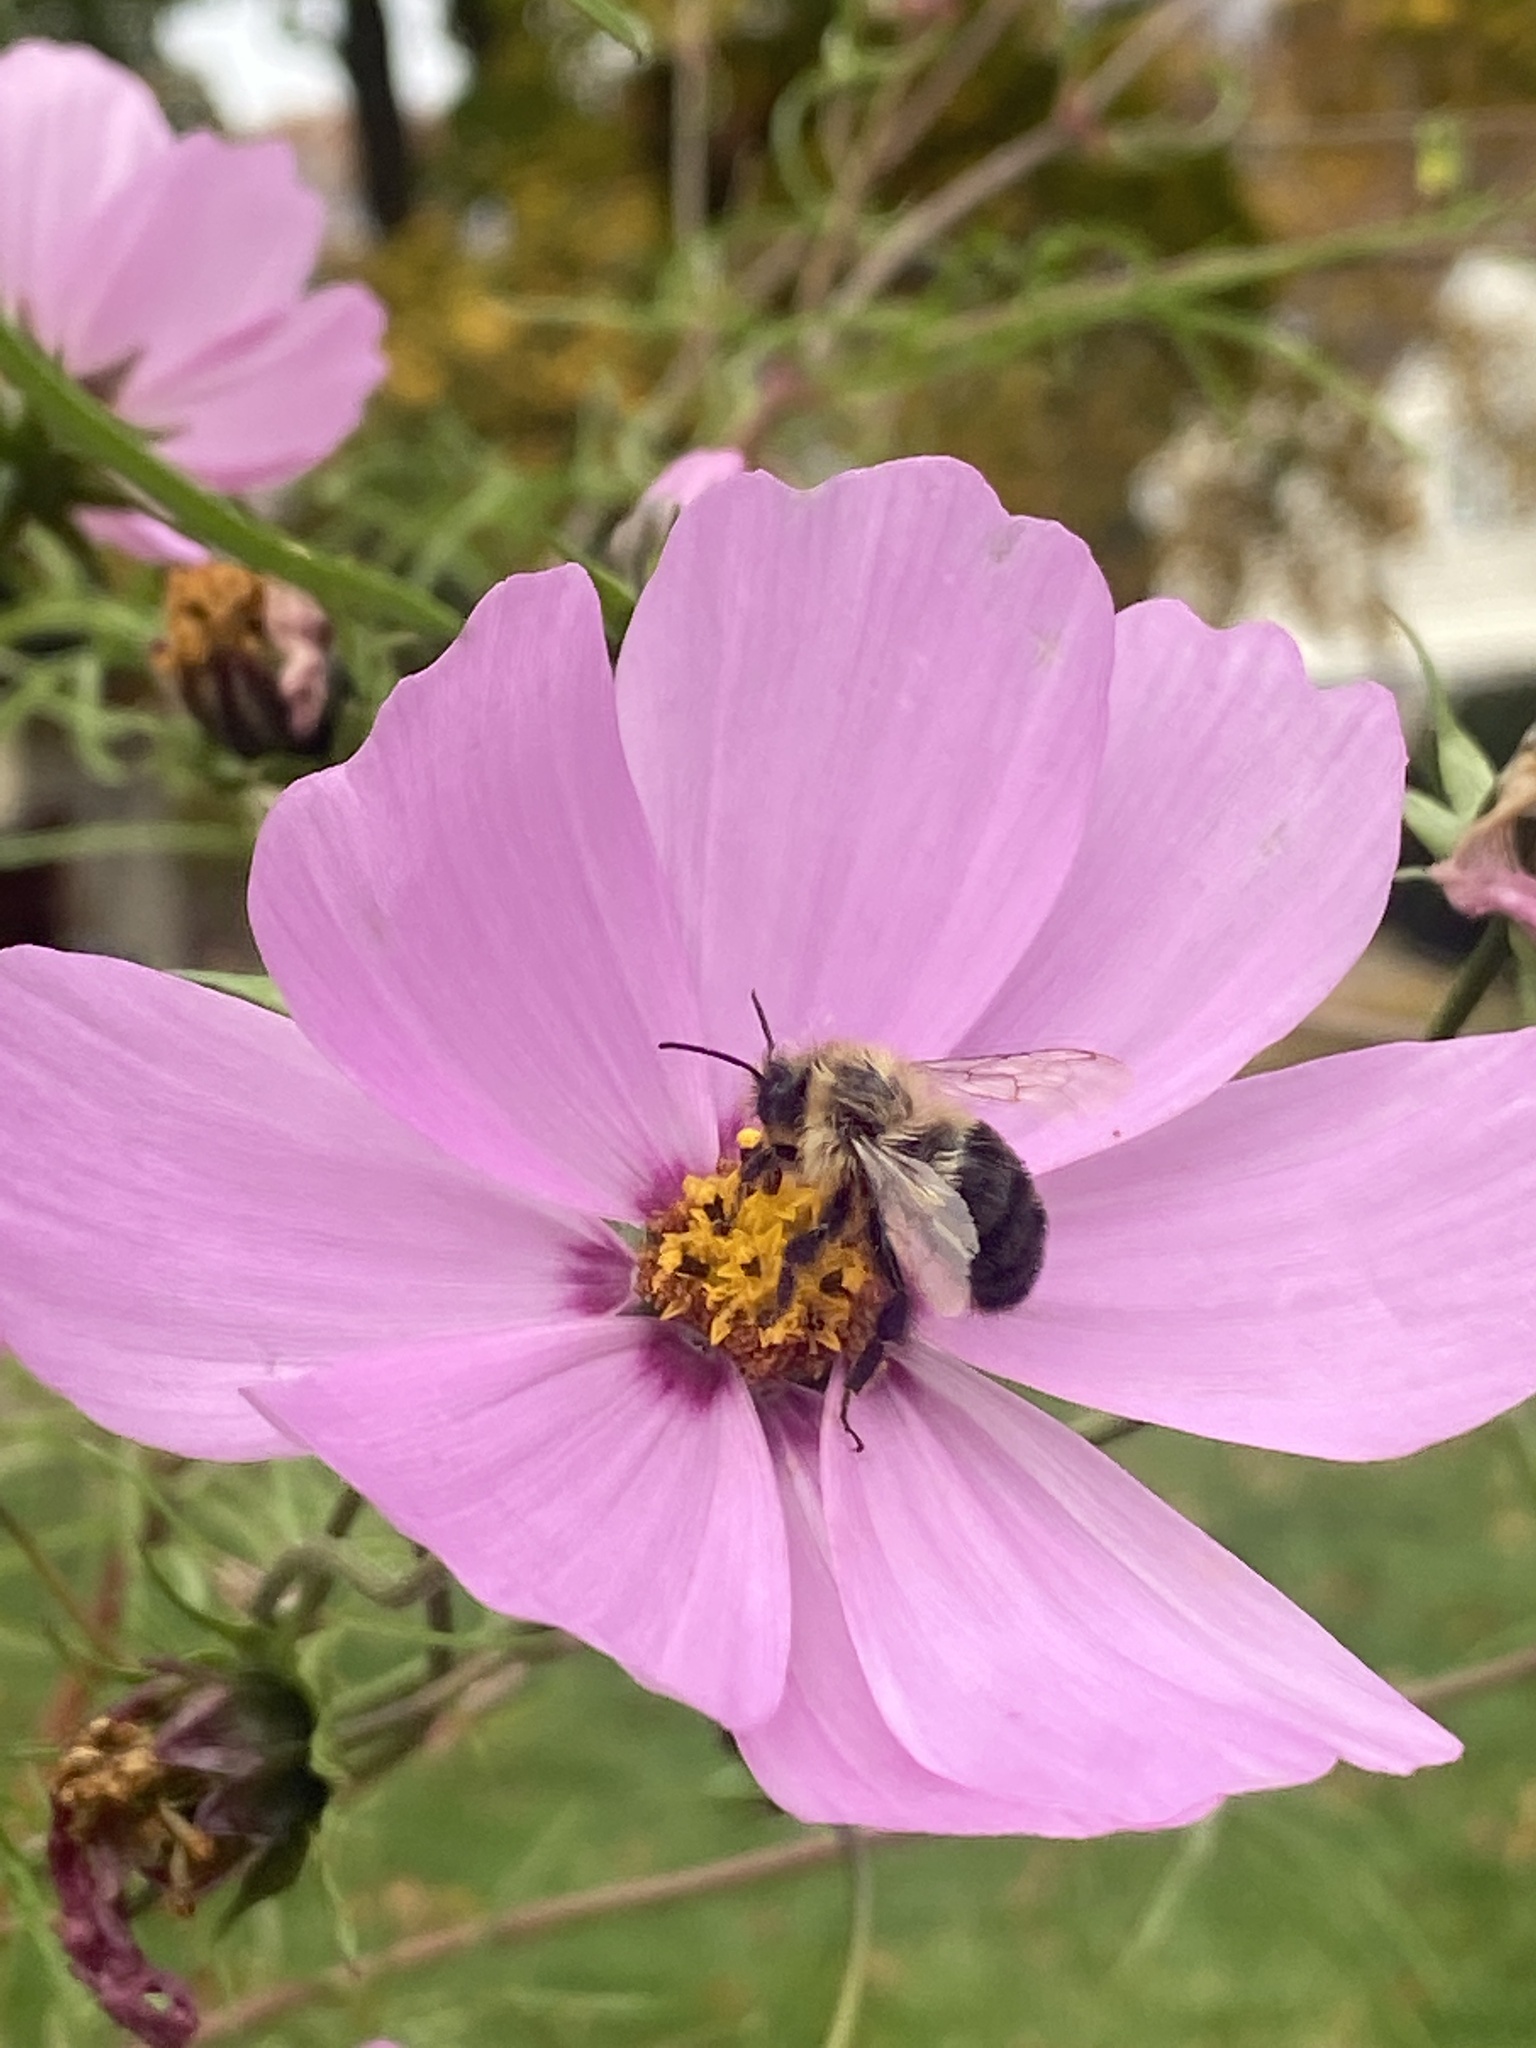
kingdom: Animalia
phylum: Arthropoda
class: Insecta
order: Hymenoptera
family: Apidae
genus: Bombus
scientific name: Bombus impatiens
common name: Common eastern bumble bee
